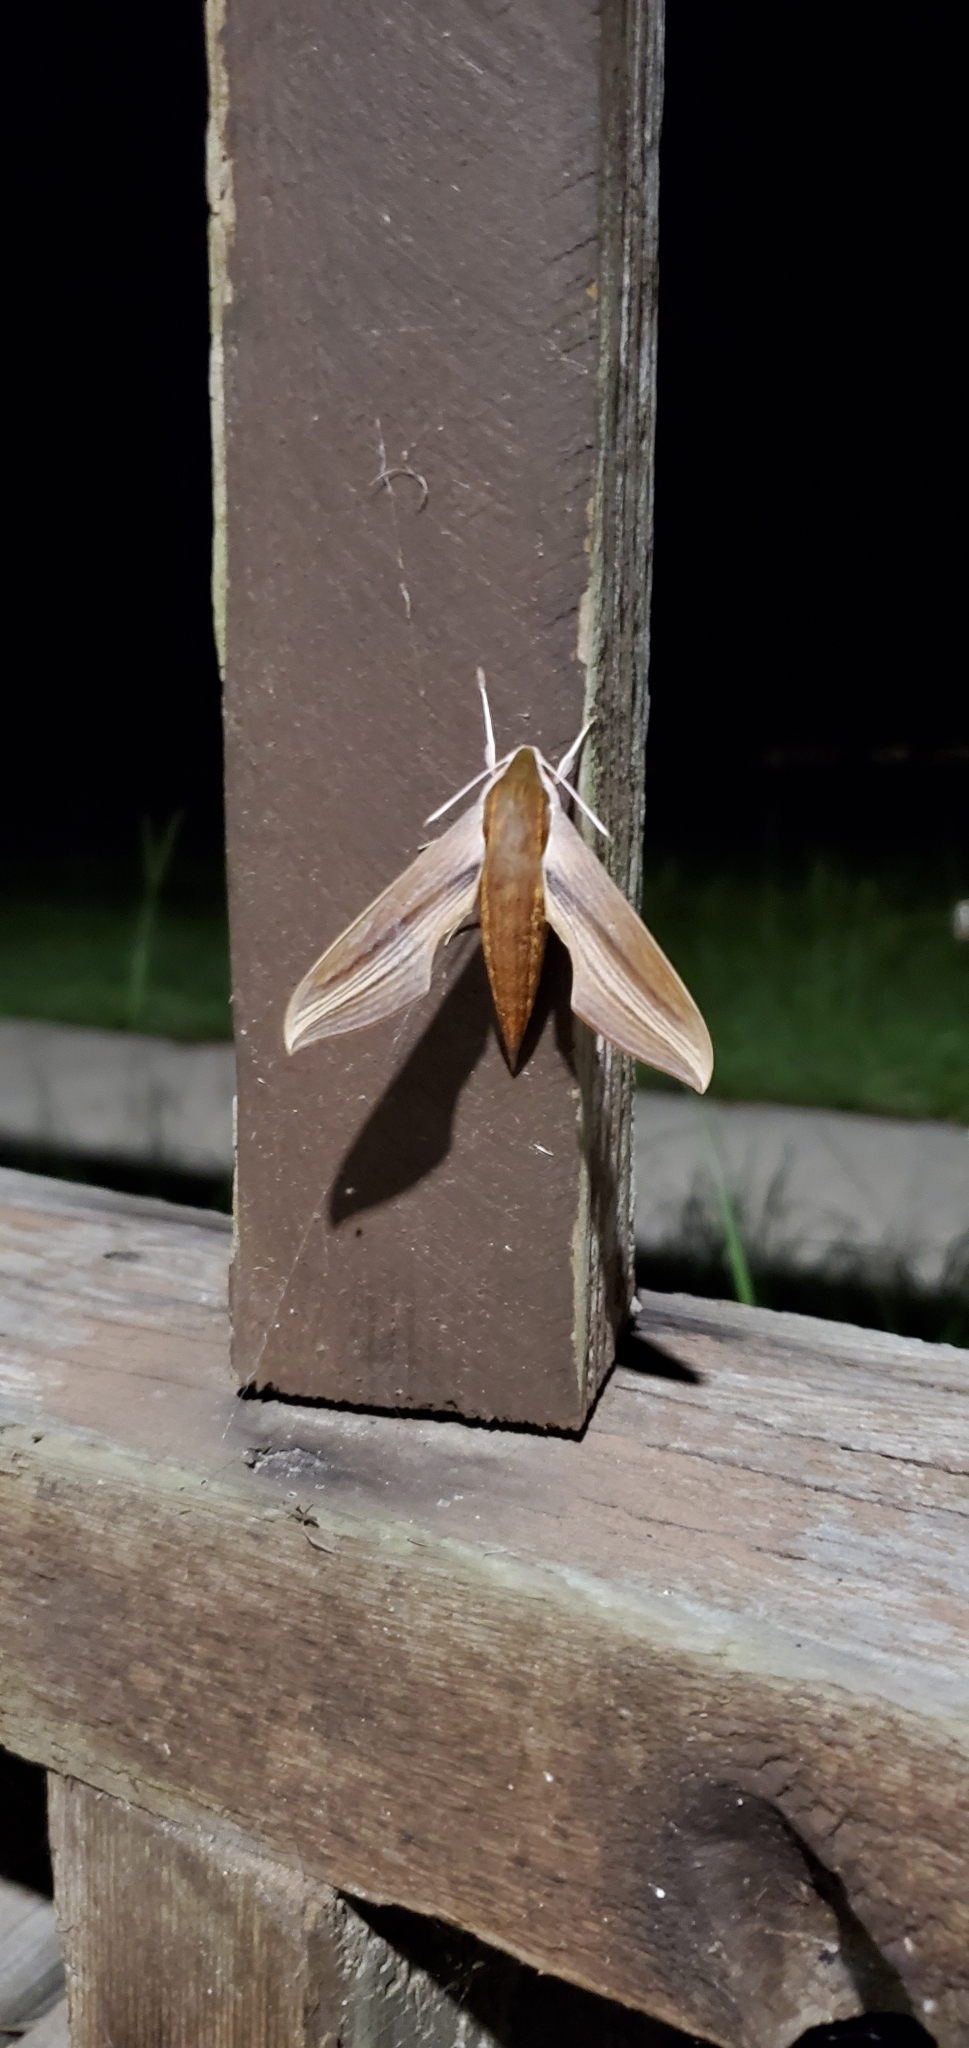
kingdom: Animalia
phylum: Arthropoda
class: Insecta
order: Lepidoptera
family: Sphingidae
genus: Xylophanes
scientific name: Xylophanes tersa
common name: Tersa sphinx
